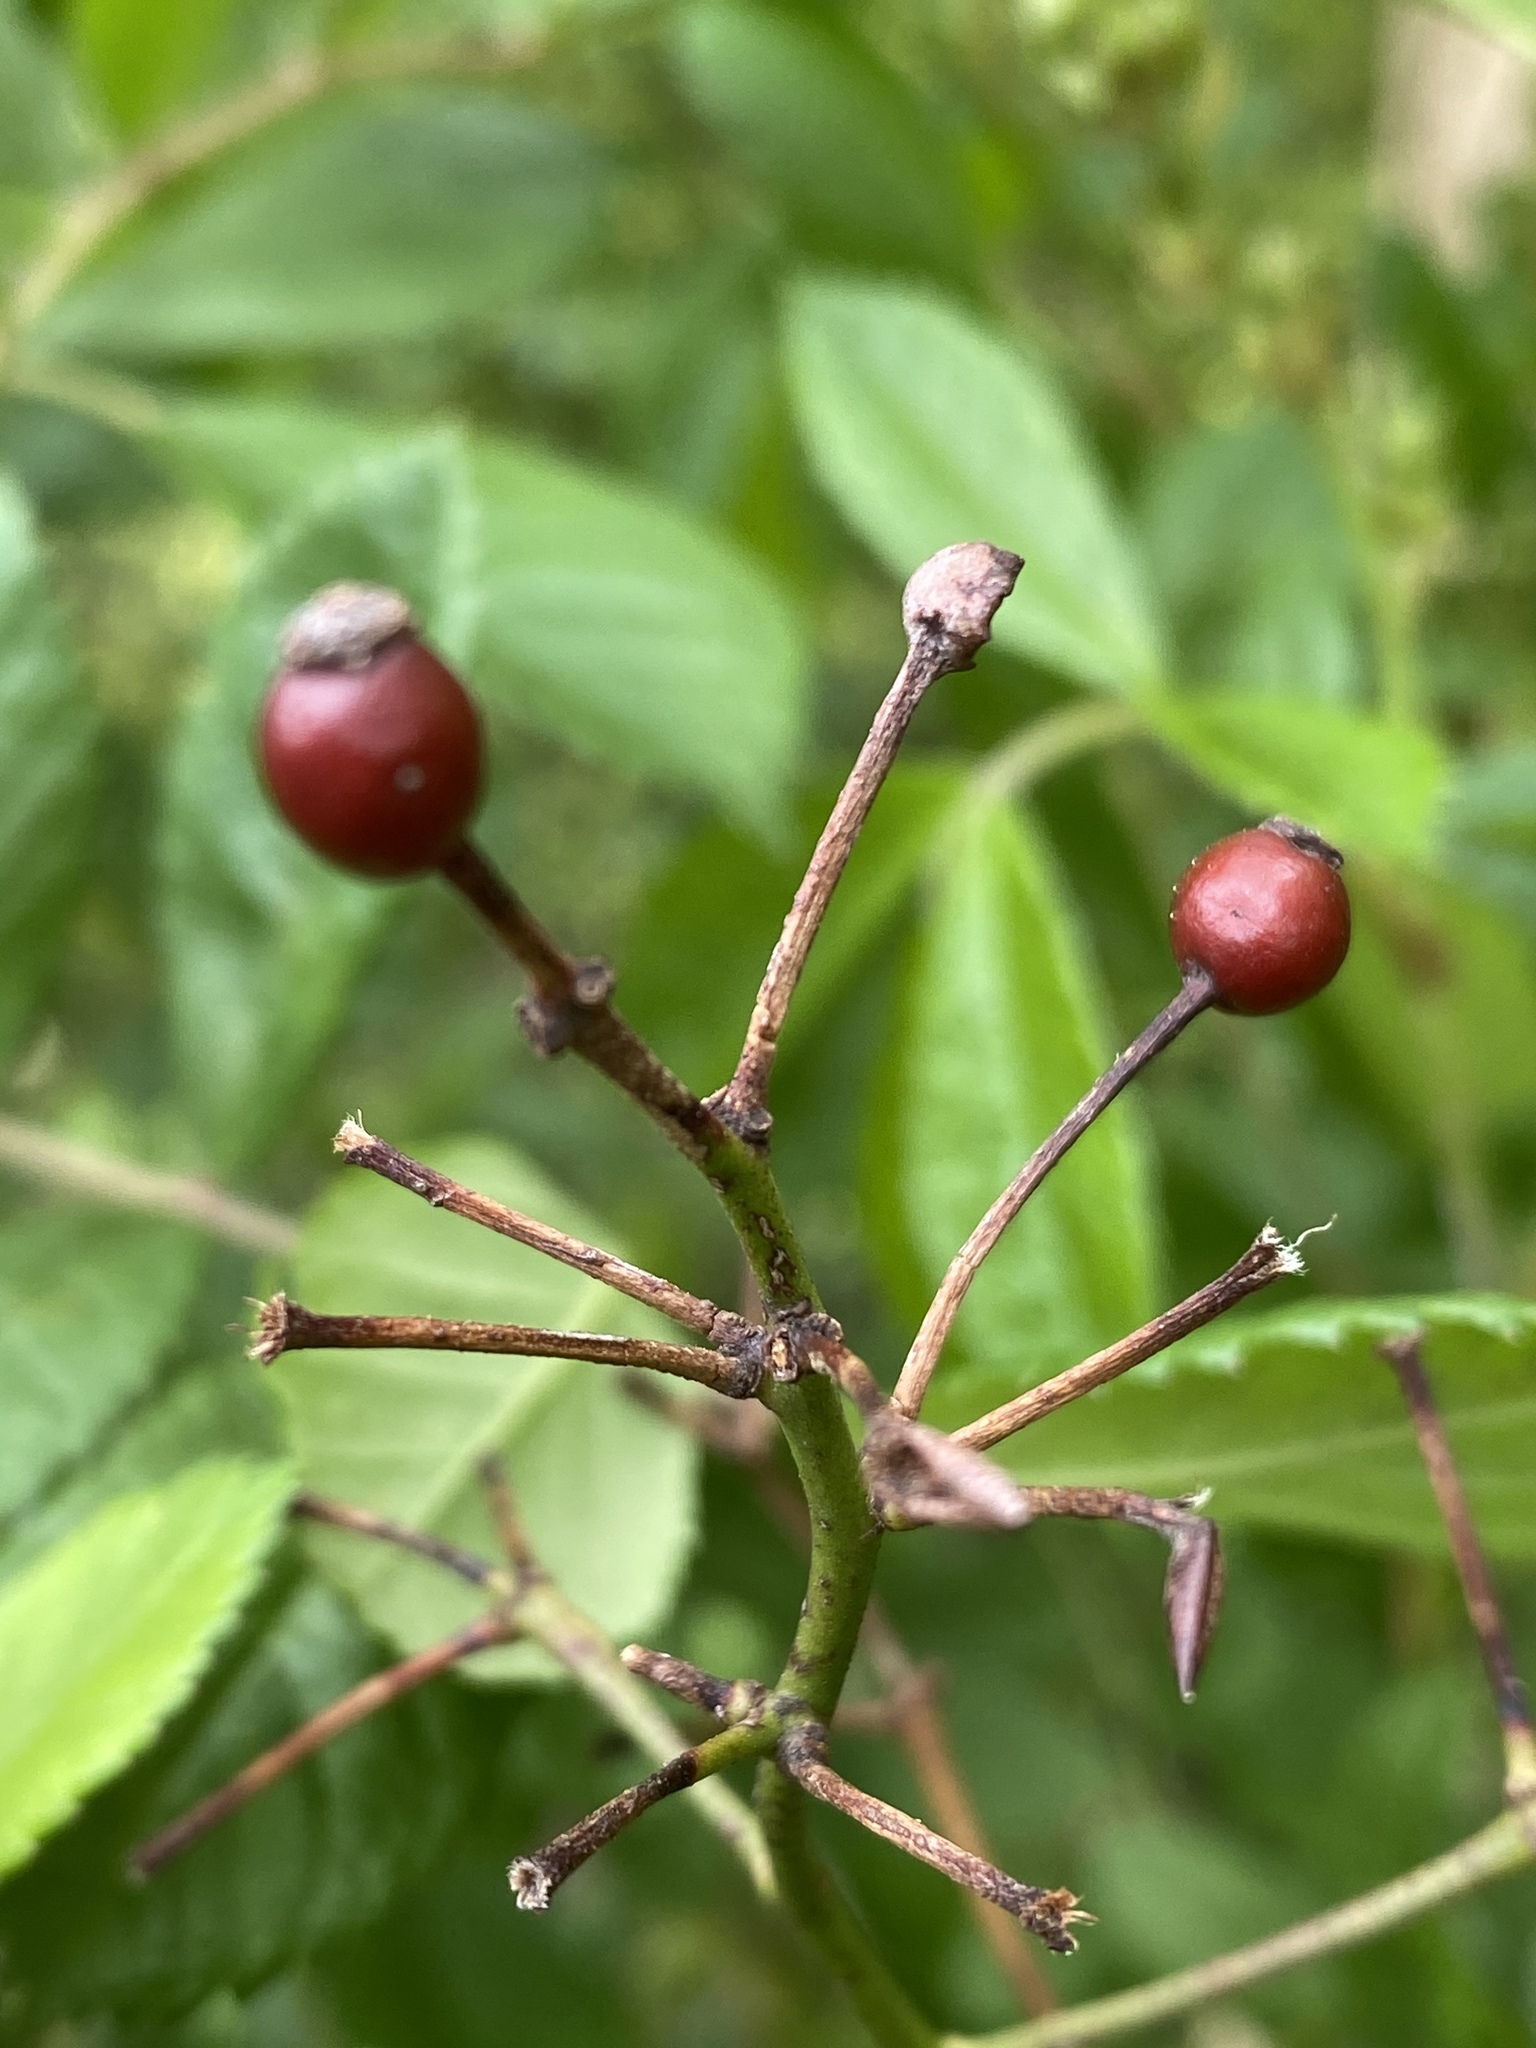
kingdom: Plantae
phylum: Tracheophyta
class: Magnoliopsida
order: Rosales
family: Rosaceae
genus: Rosa
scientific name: Rosa multiflora
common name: Multiflora rose
